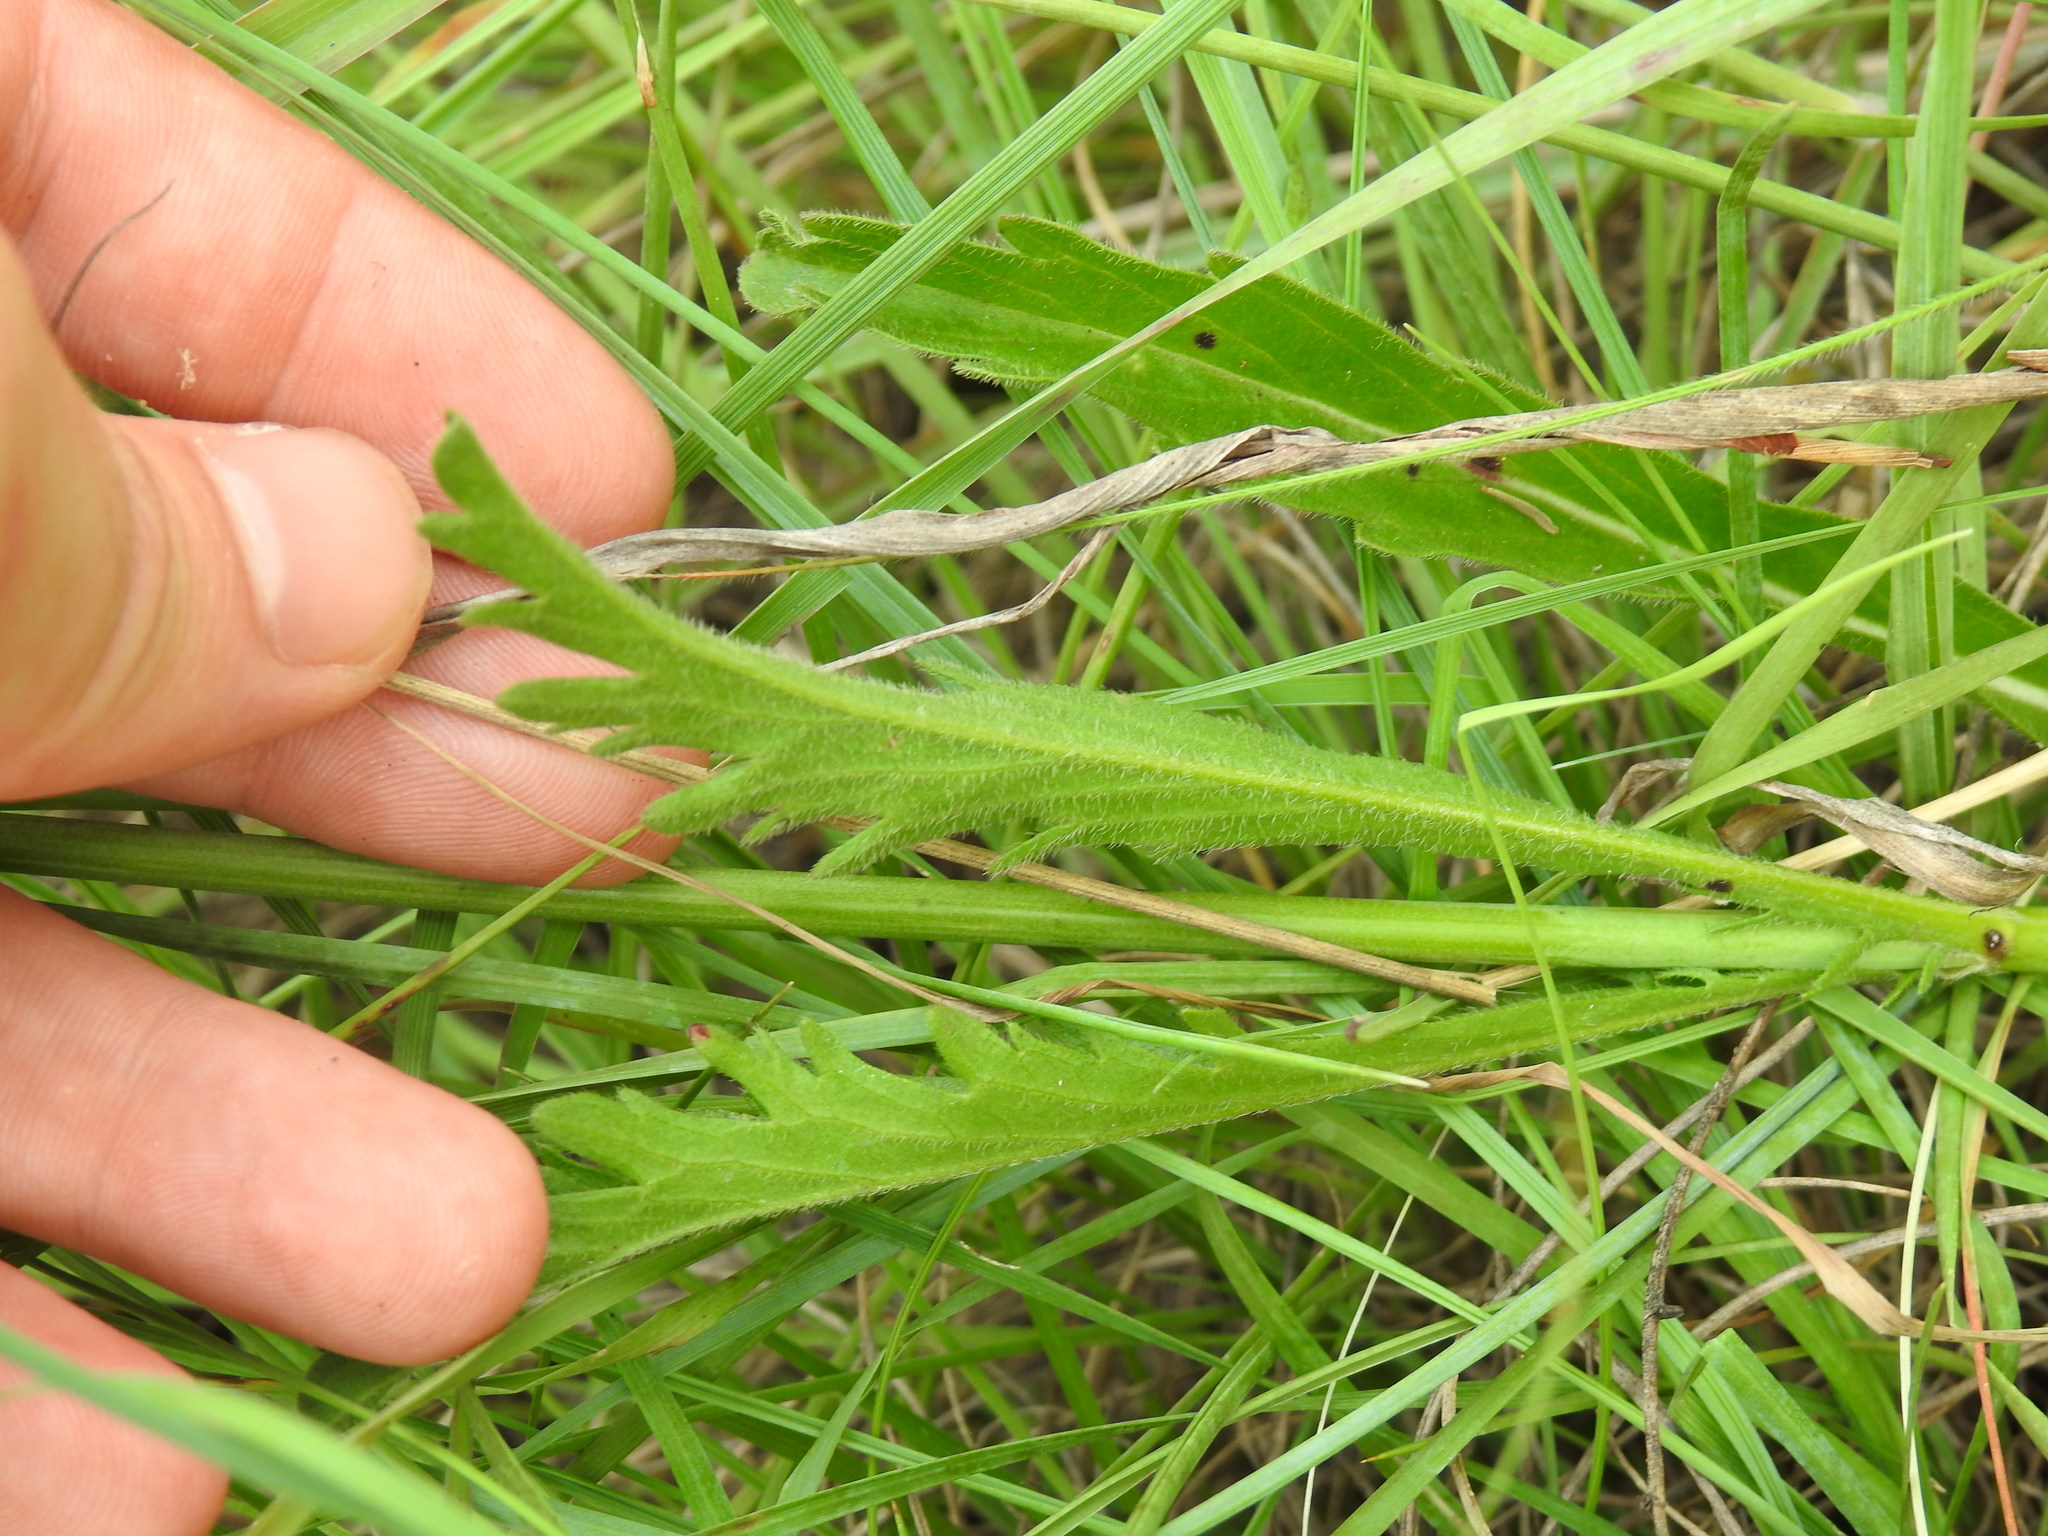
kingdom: Plantae
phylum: Tracheophyta
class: Magnoliopsida
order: Dipsacales
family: Caprifoliaceae
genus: Scabiosa
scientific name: Scabiosa columbaria
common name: Small scabious
